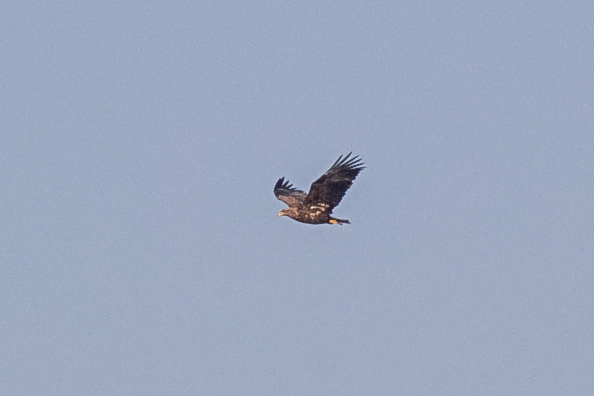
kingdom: Animalia
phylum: Chordata
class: Aves
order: Accipitriformes
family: Accipitridae
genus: Haliaeetus
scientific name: Haliaeetus albicilla
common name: White-tailed eagle
